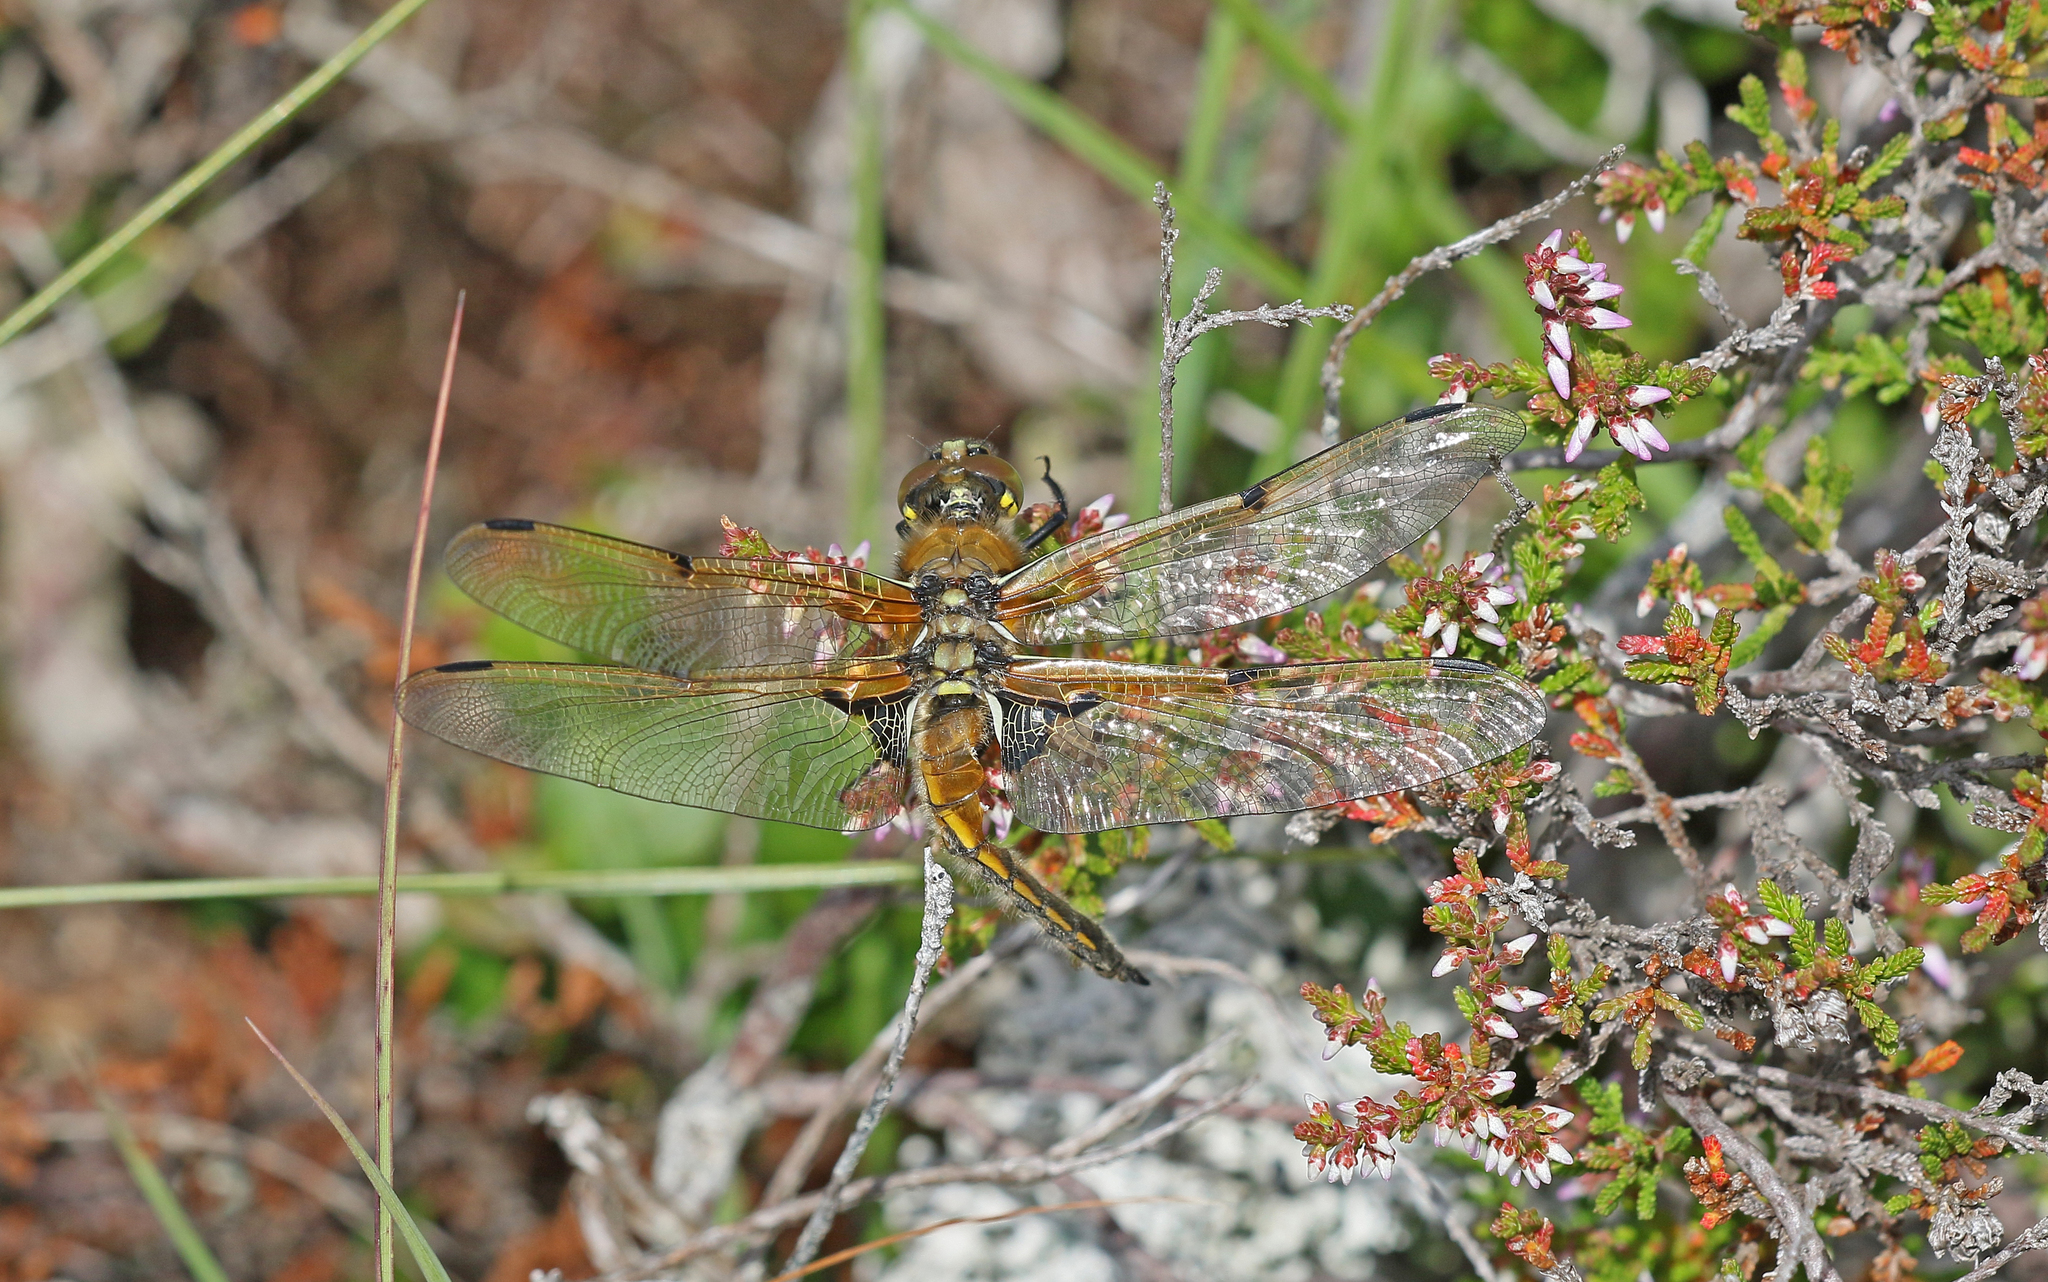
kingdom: Animalia
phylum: Arthropoda
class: Insecta
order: Odonata
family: Libellulidae
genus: Libellula
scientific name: Libellula quadrimaculata
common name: Four-spotted chaser
